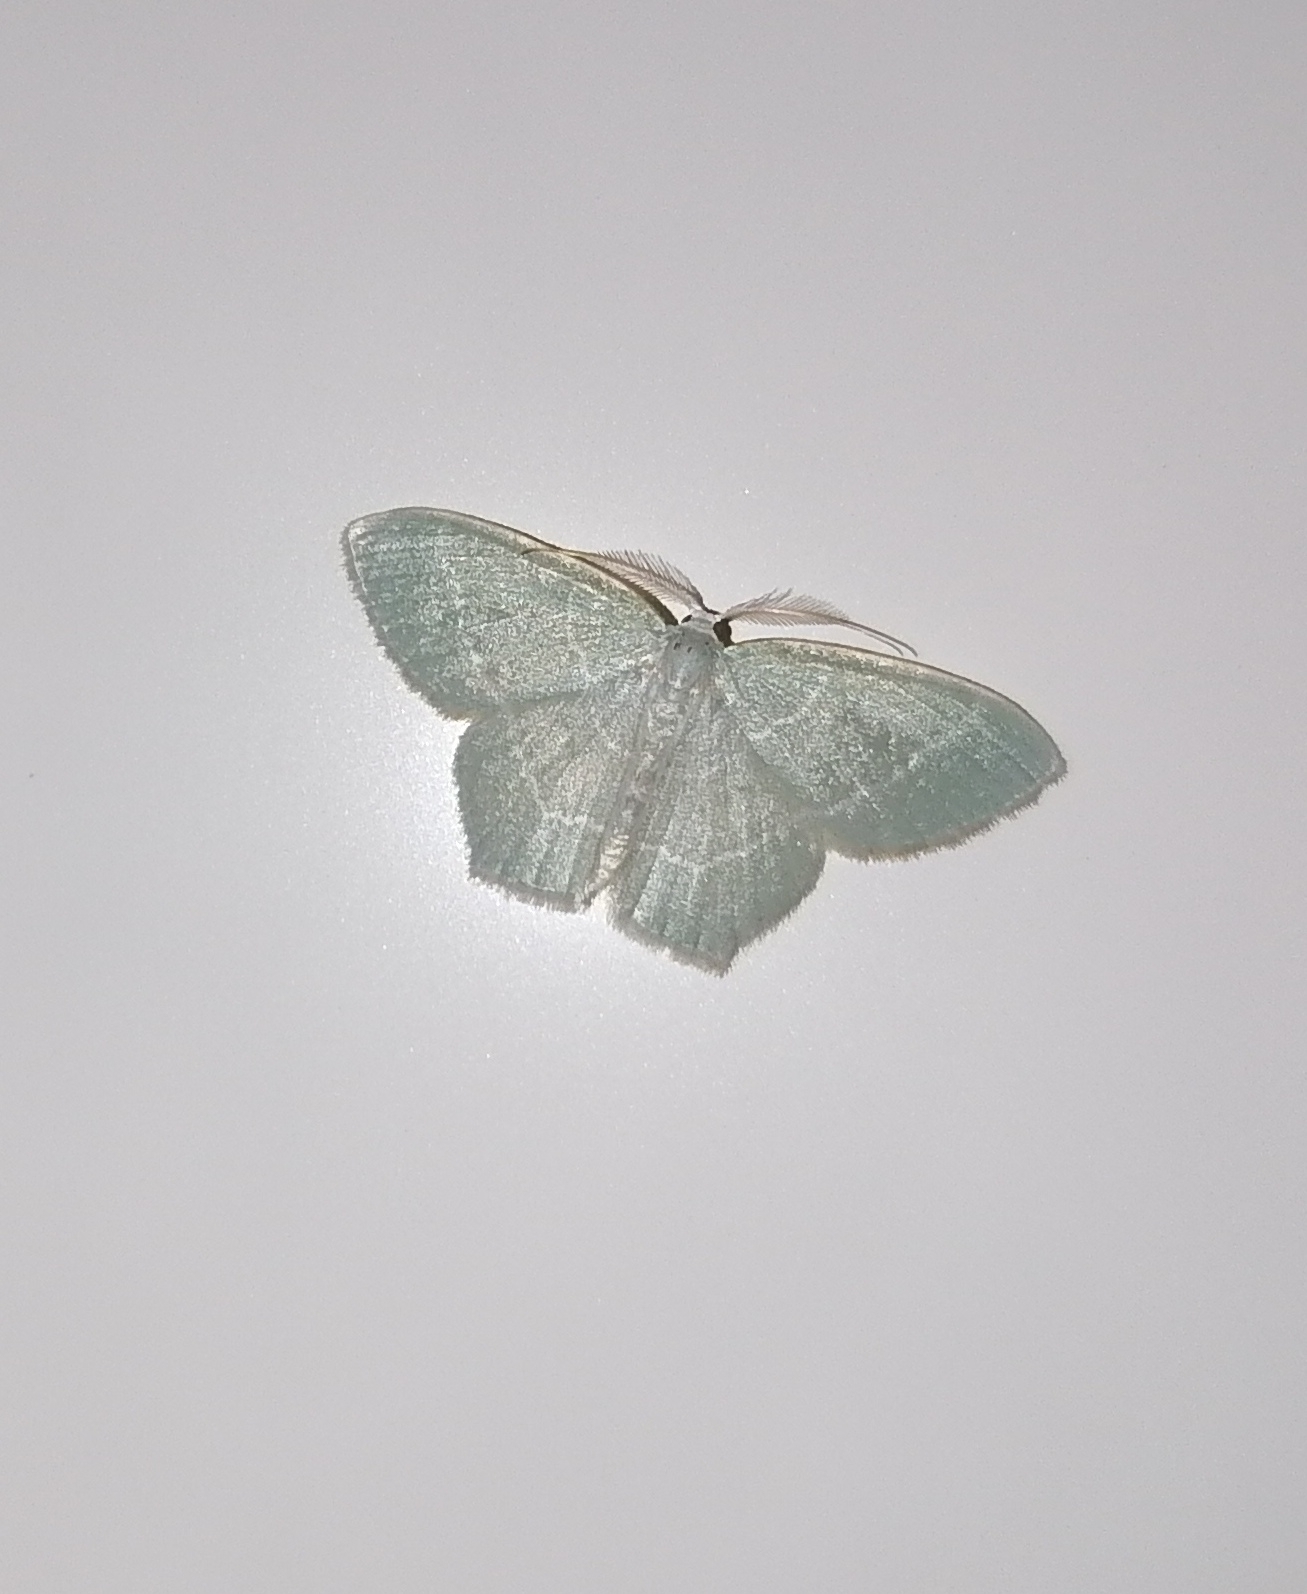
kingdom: Animalia
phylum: Arthropoda
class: Insecta
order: Lepidoptera
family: Geometridae
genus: Jodis
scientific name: Jodis lactearia
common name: Little emerald
